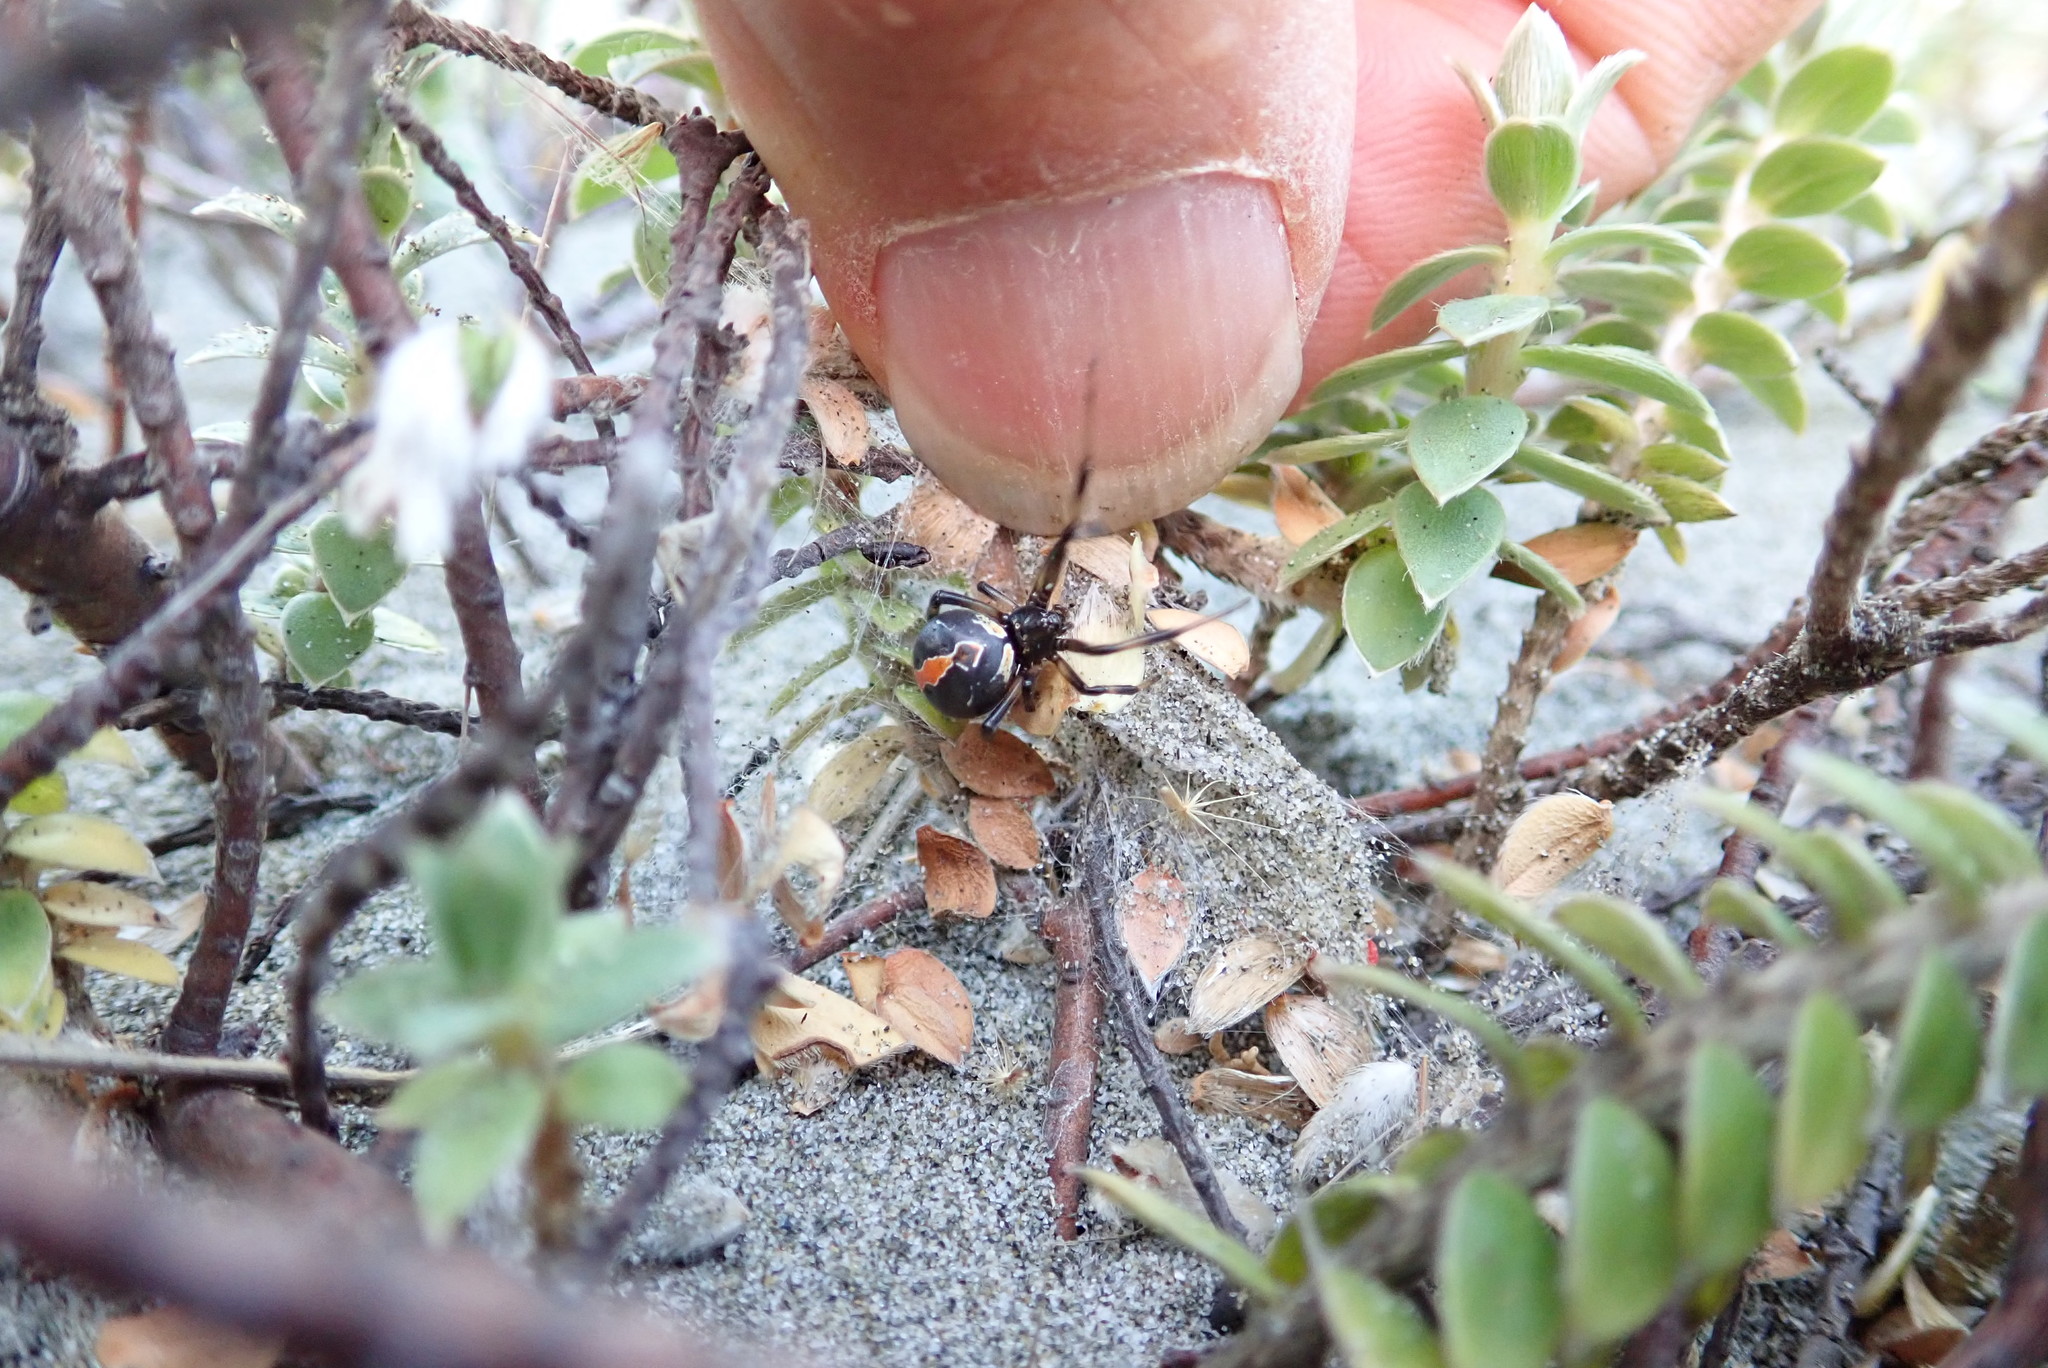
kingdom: Animalia
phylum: Arthropoda
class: Arachnida
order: Araneae
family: Theridiidae
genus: Latrodectus
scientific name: Latrodectus katipo
